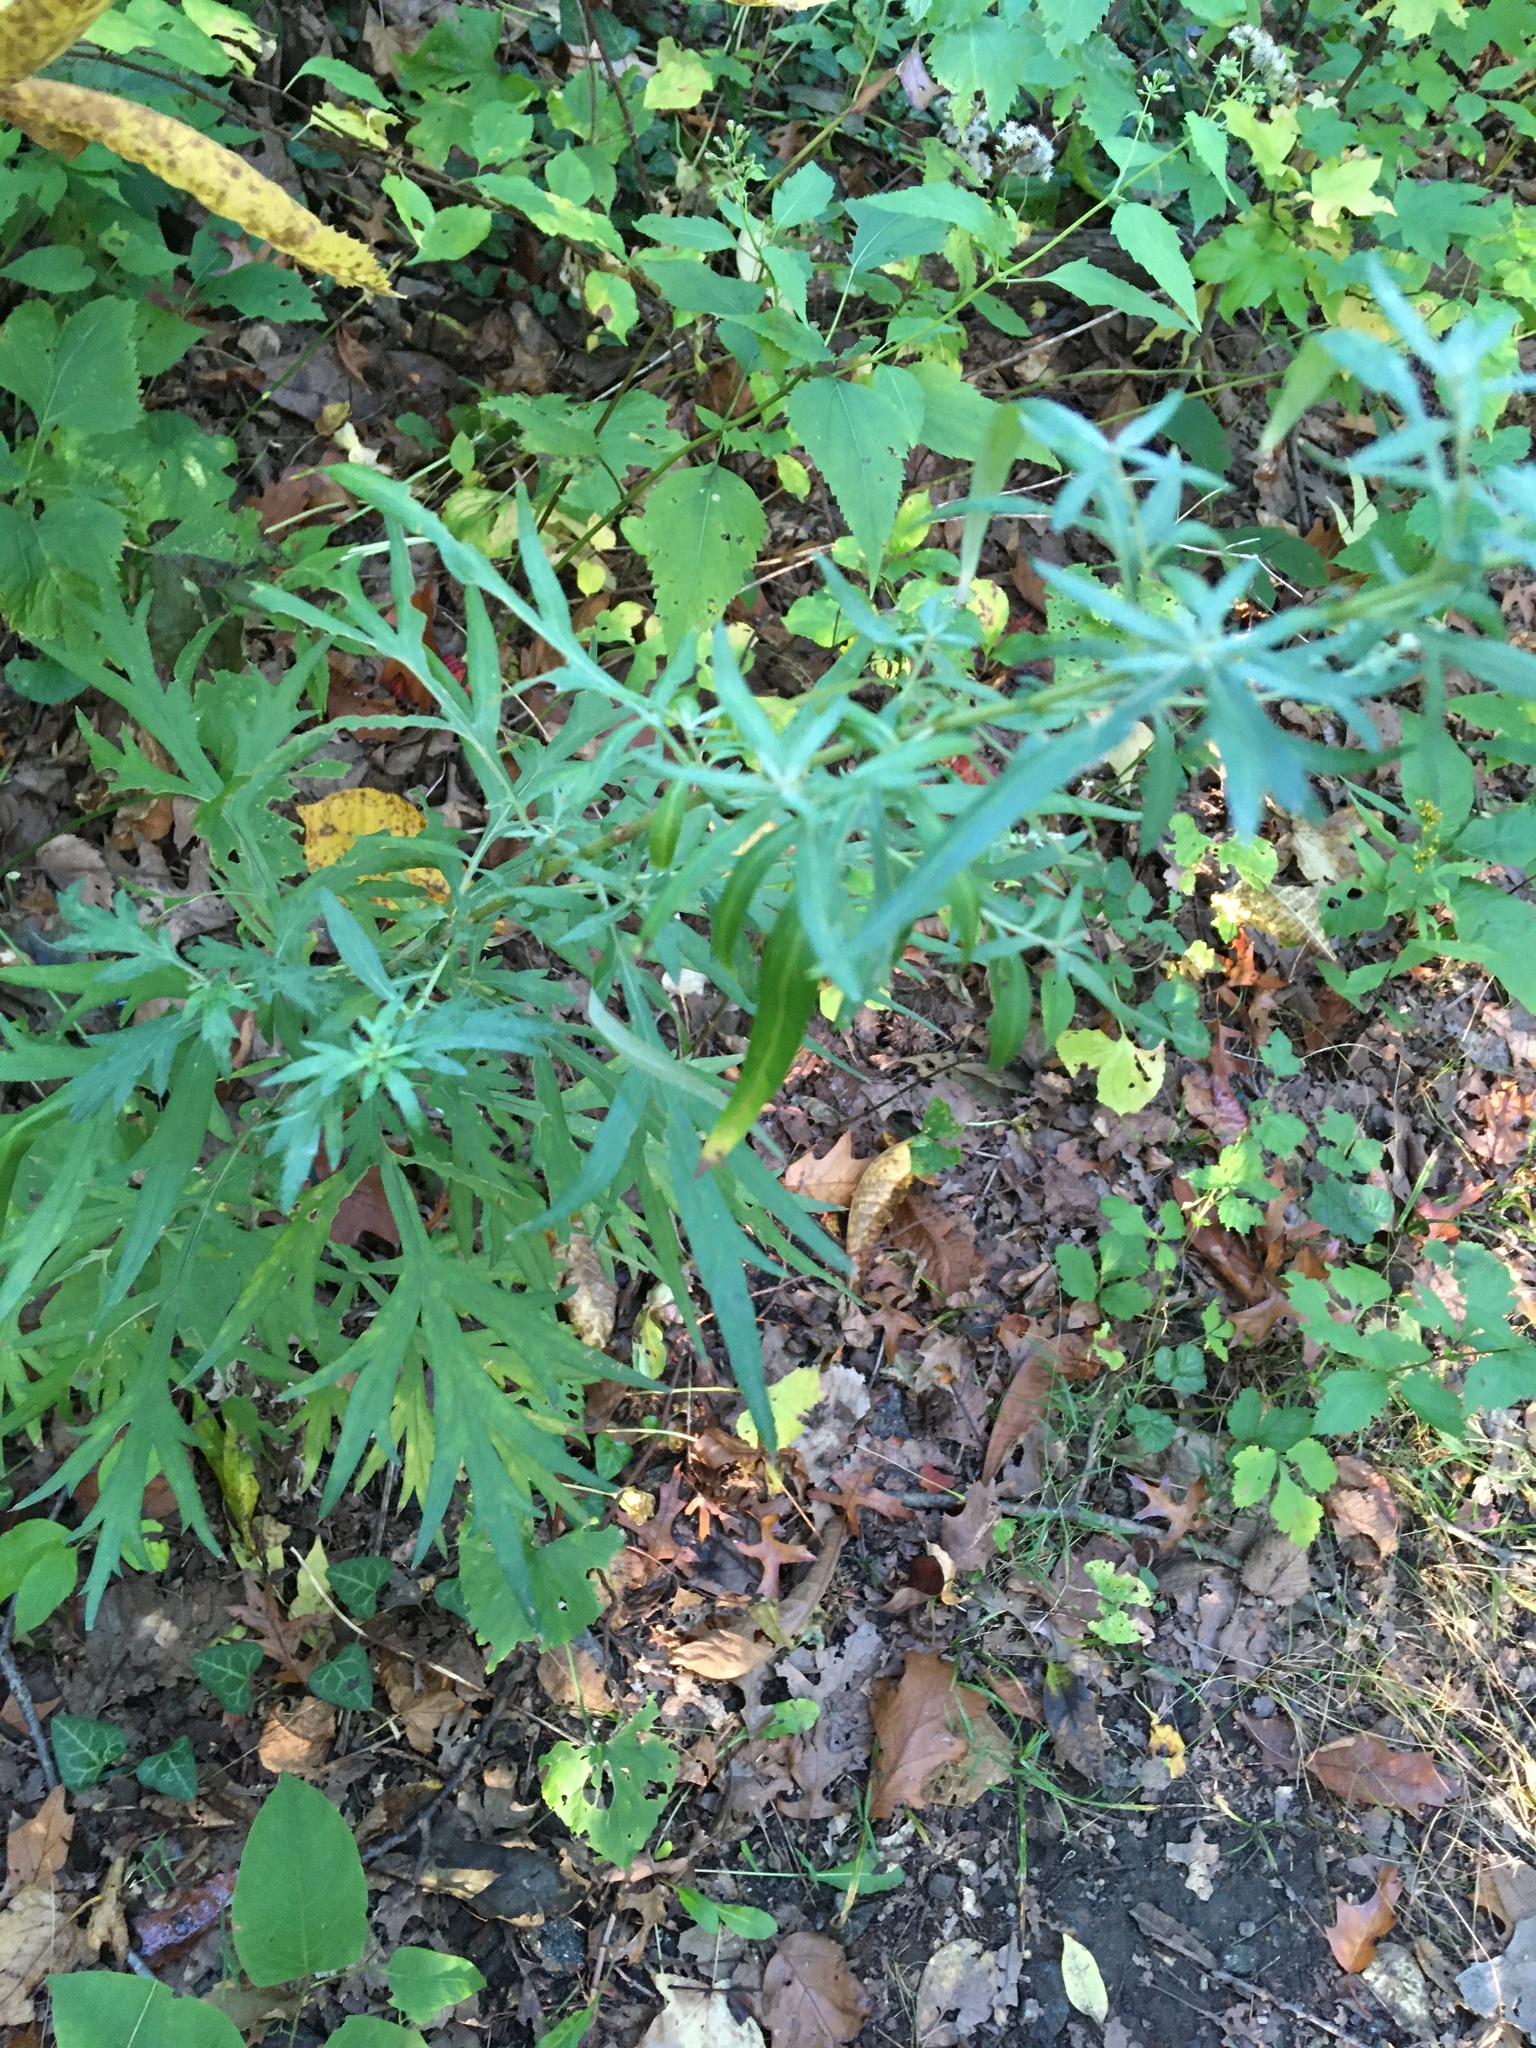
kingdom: Plantae
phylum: Tracheophyta
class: Magnoliopsida
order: Asterales
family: Asteraceae
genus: Artemisia
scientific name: Artemisia vulgaris
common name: Mugwort
